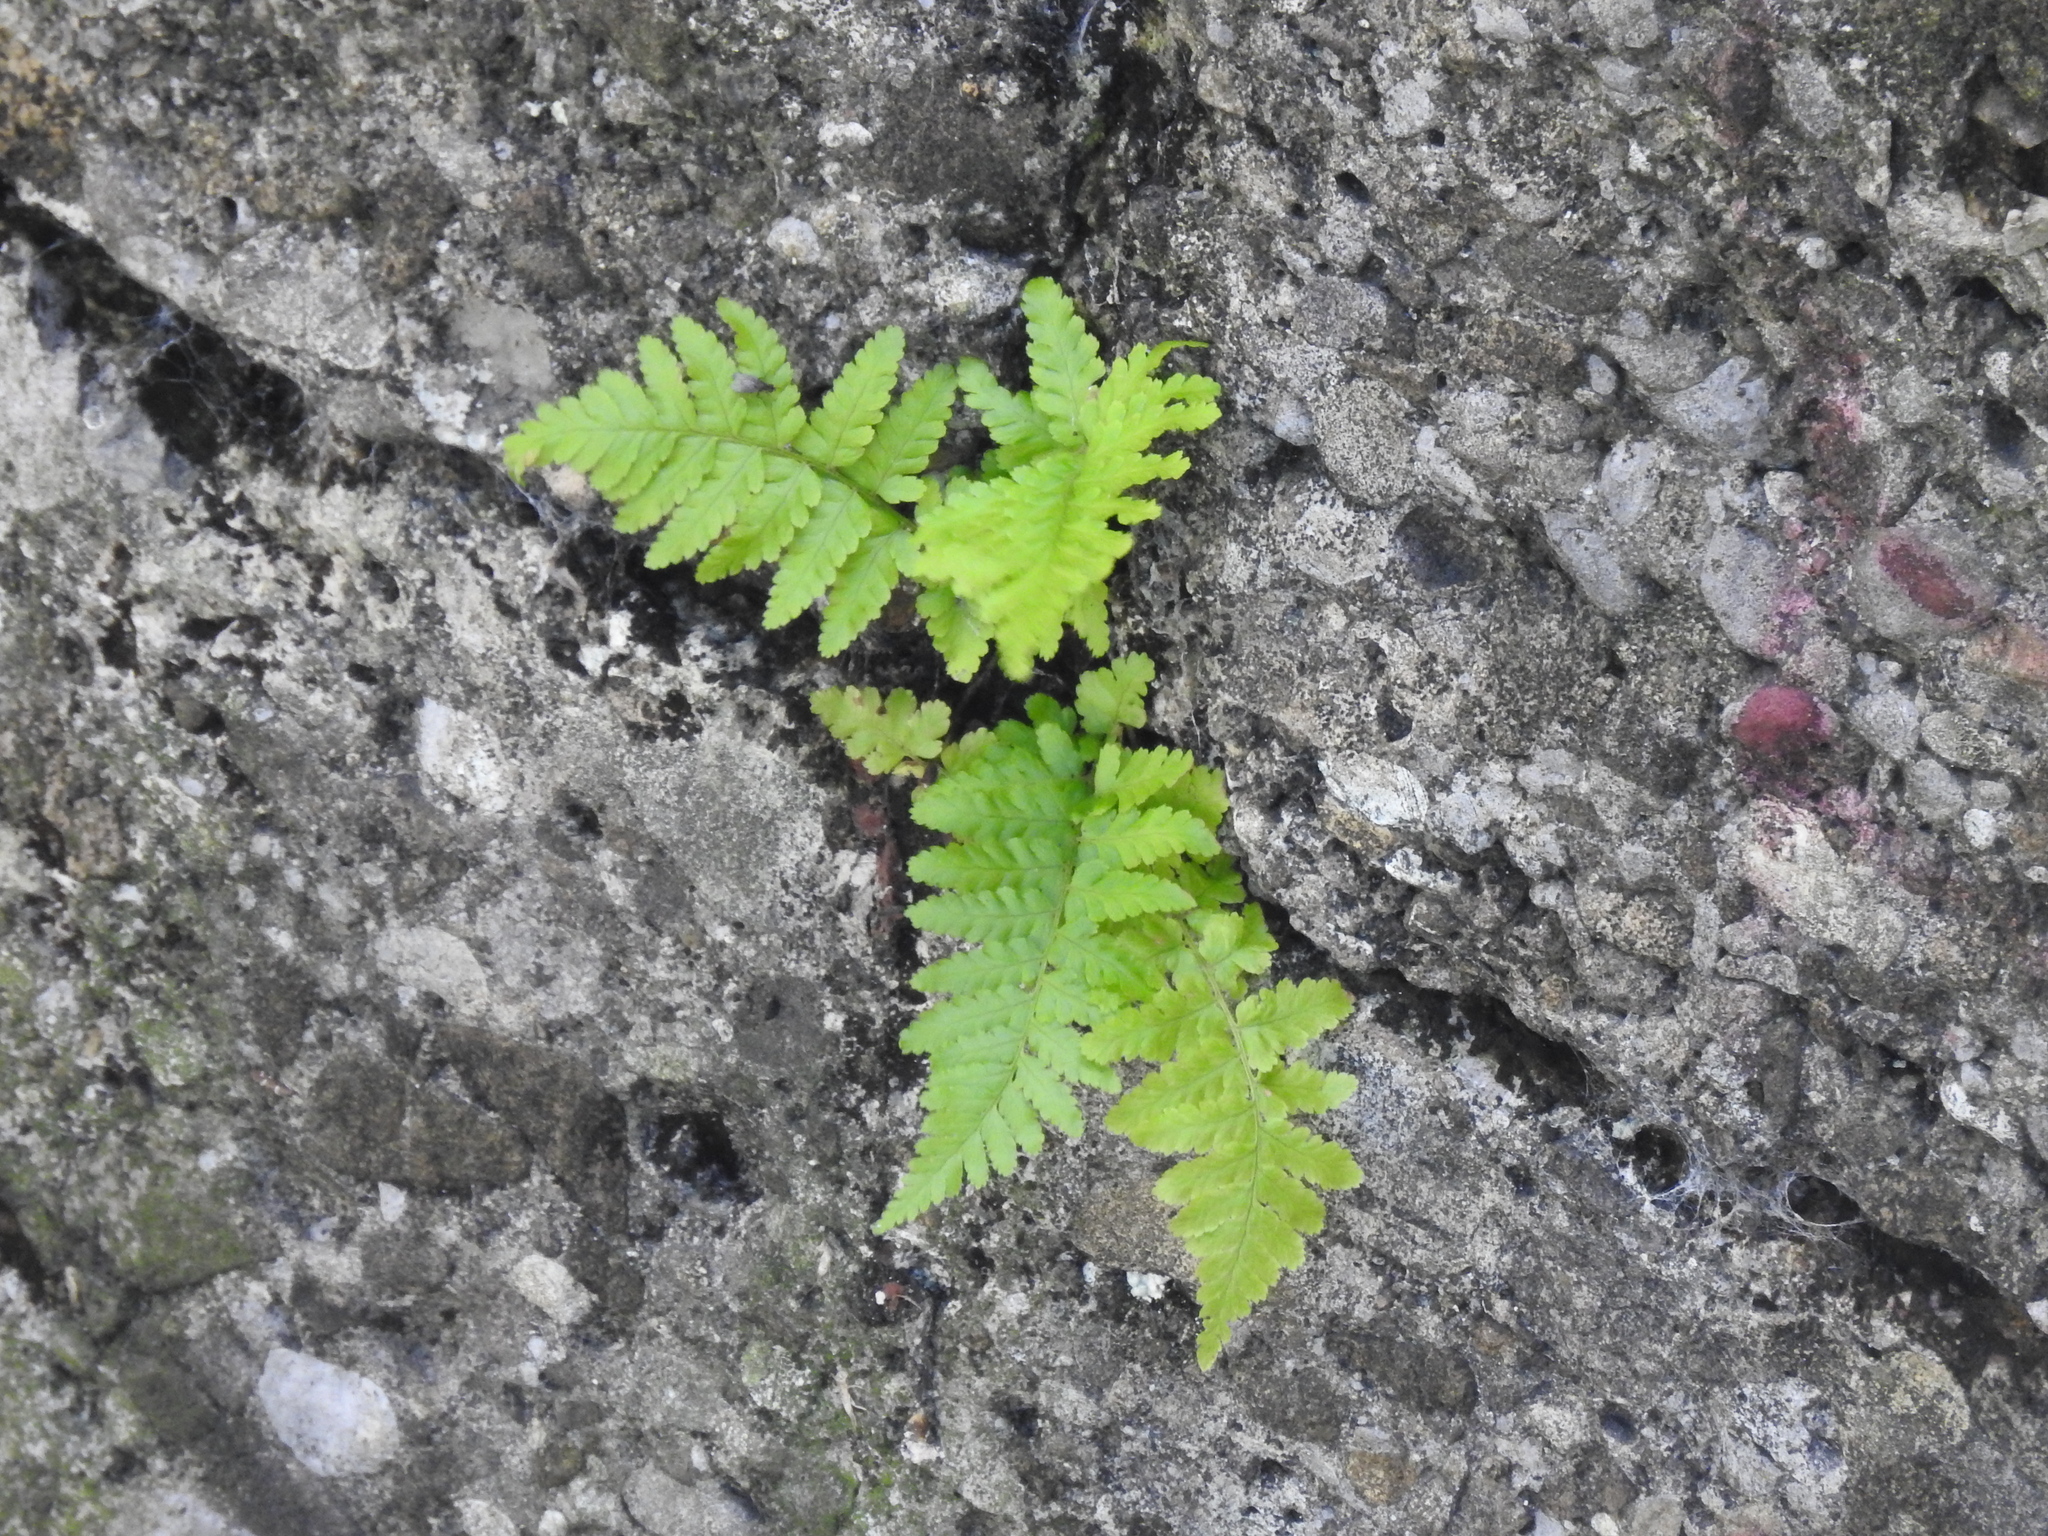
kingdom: Plantae
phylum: Tracheophyta
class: Polypodiopsida
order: Polypodiales
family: Dryopteridaceae
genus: Dryopteris
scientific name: Dryopteris filix-mas
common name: Male fern
